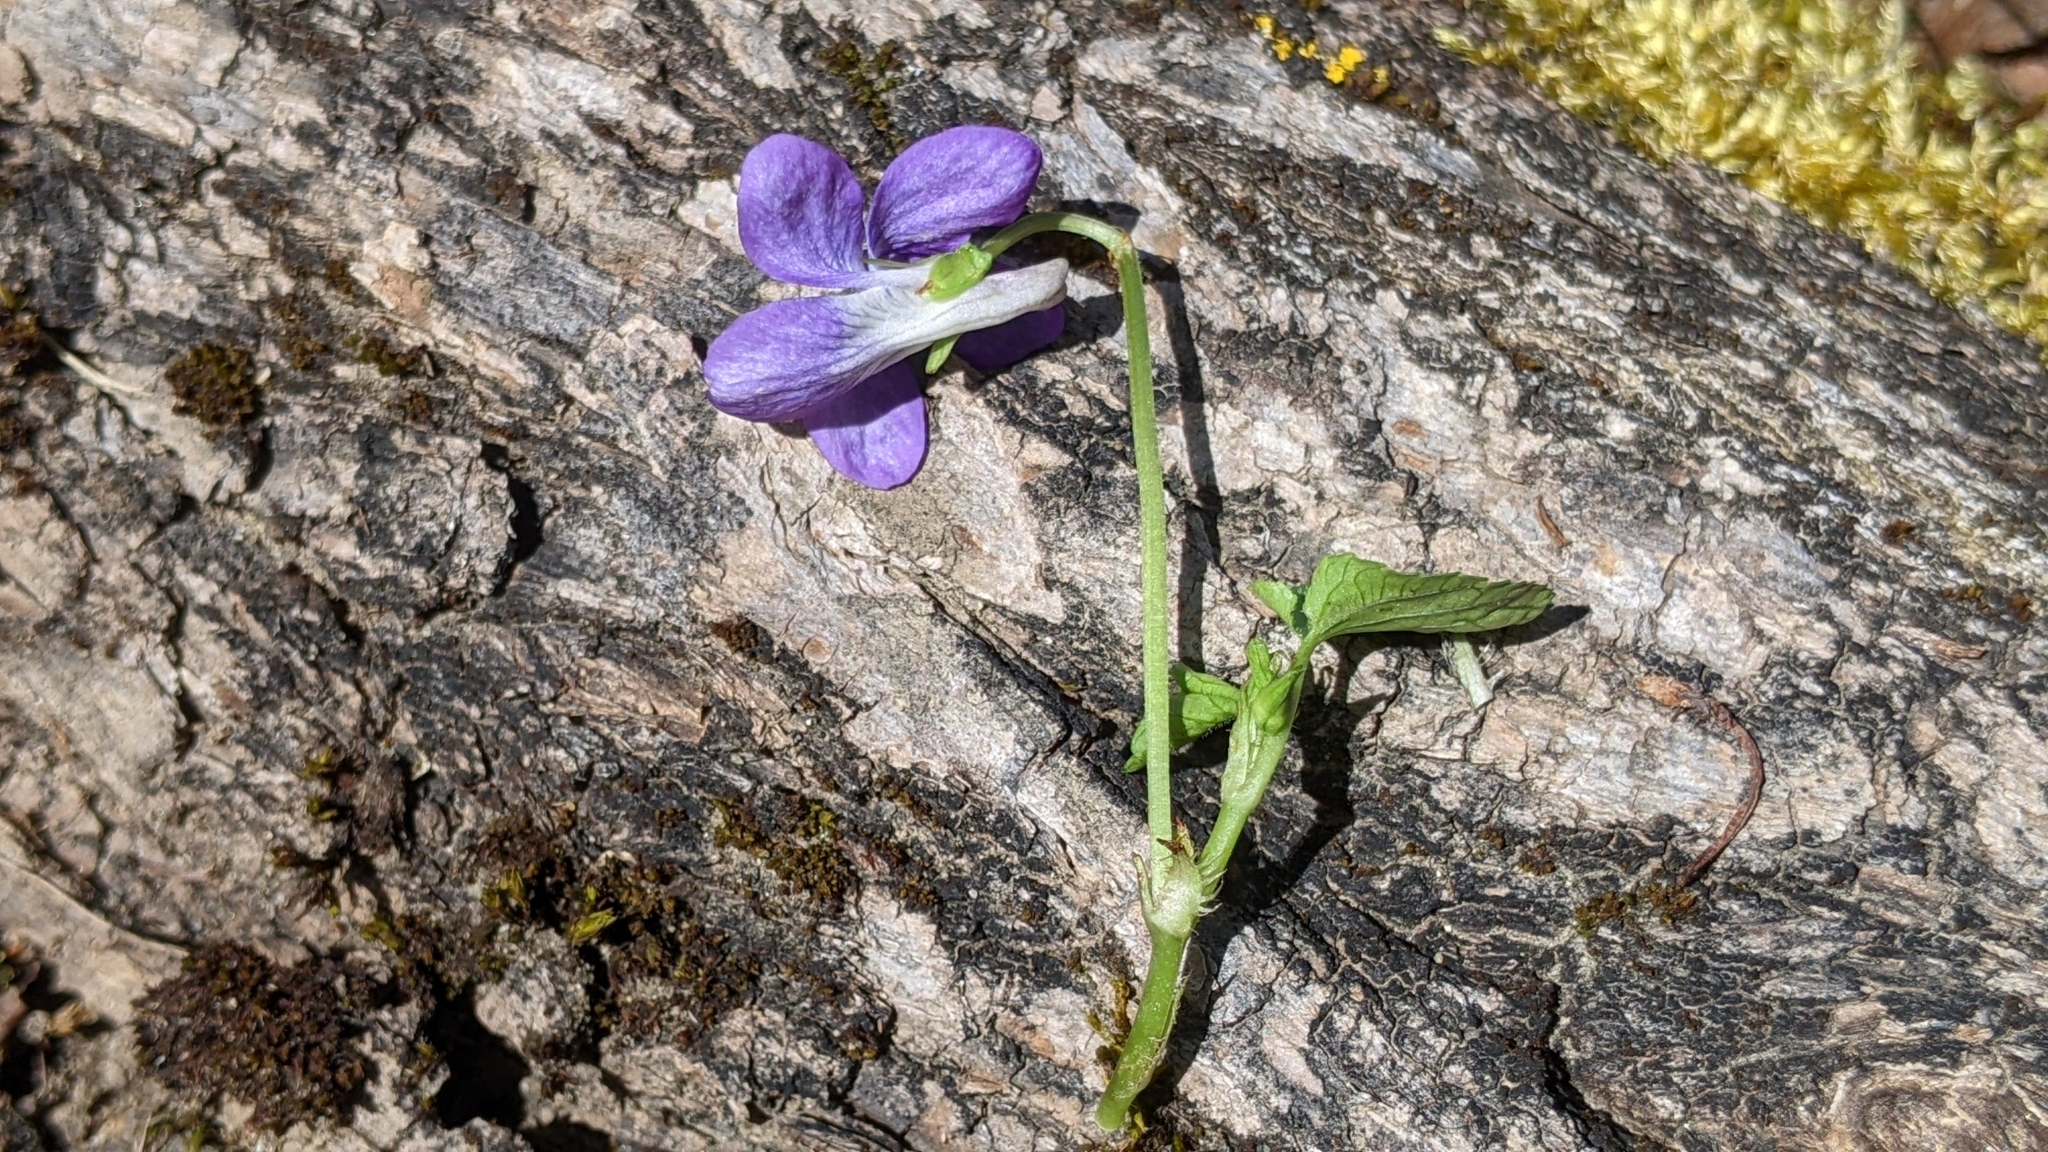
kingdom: Plantae
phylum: Tracheophyta
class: Magnoliopsida
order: Malpighiales
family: Violaceae
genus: Viola
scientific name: Viola riviniana
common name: Common dog-violet
